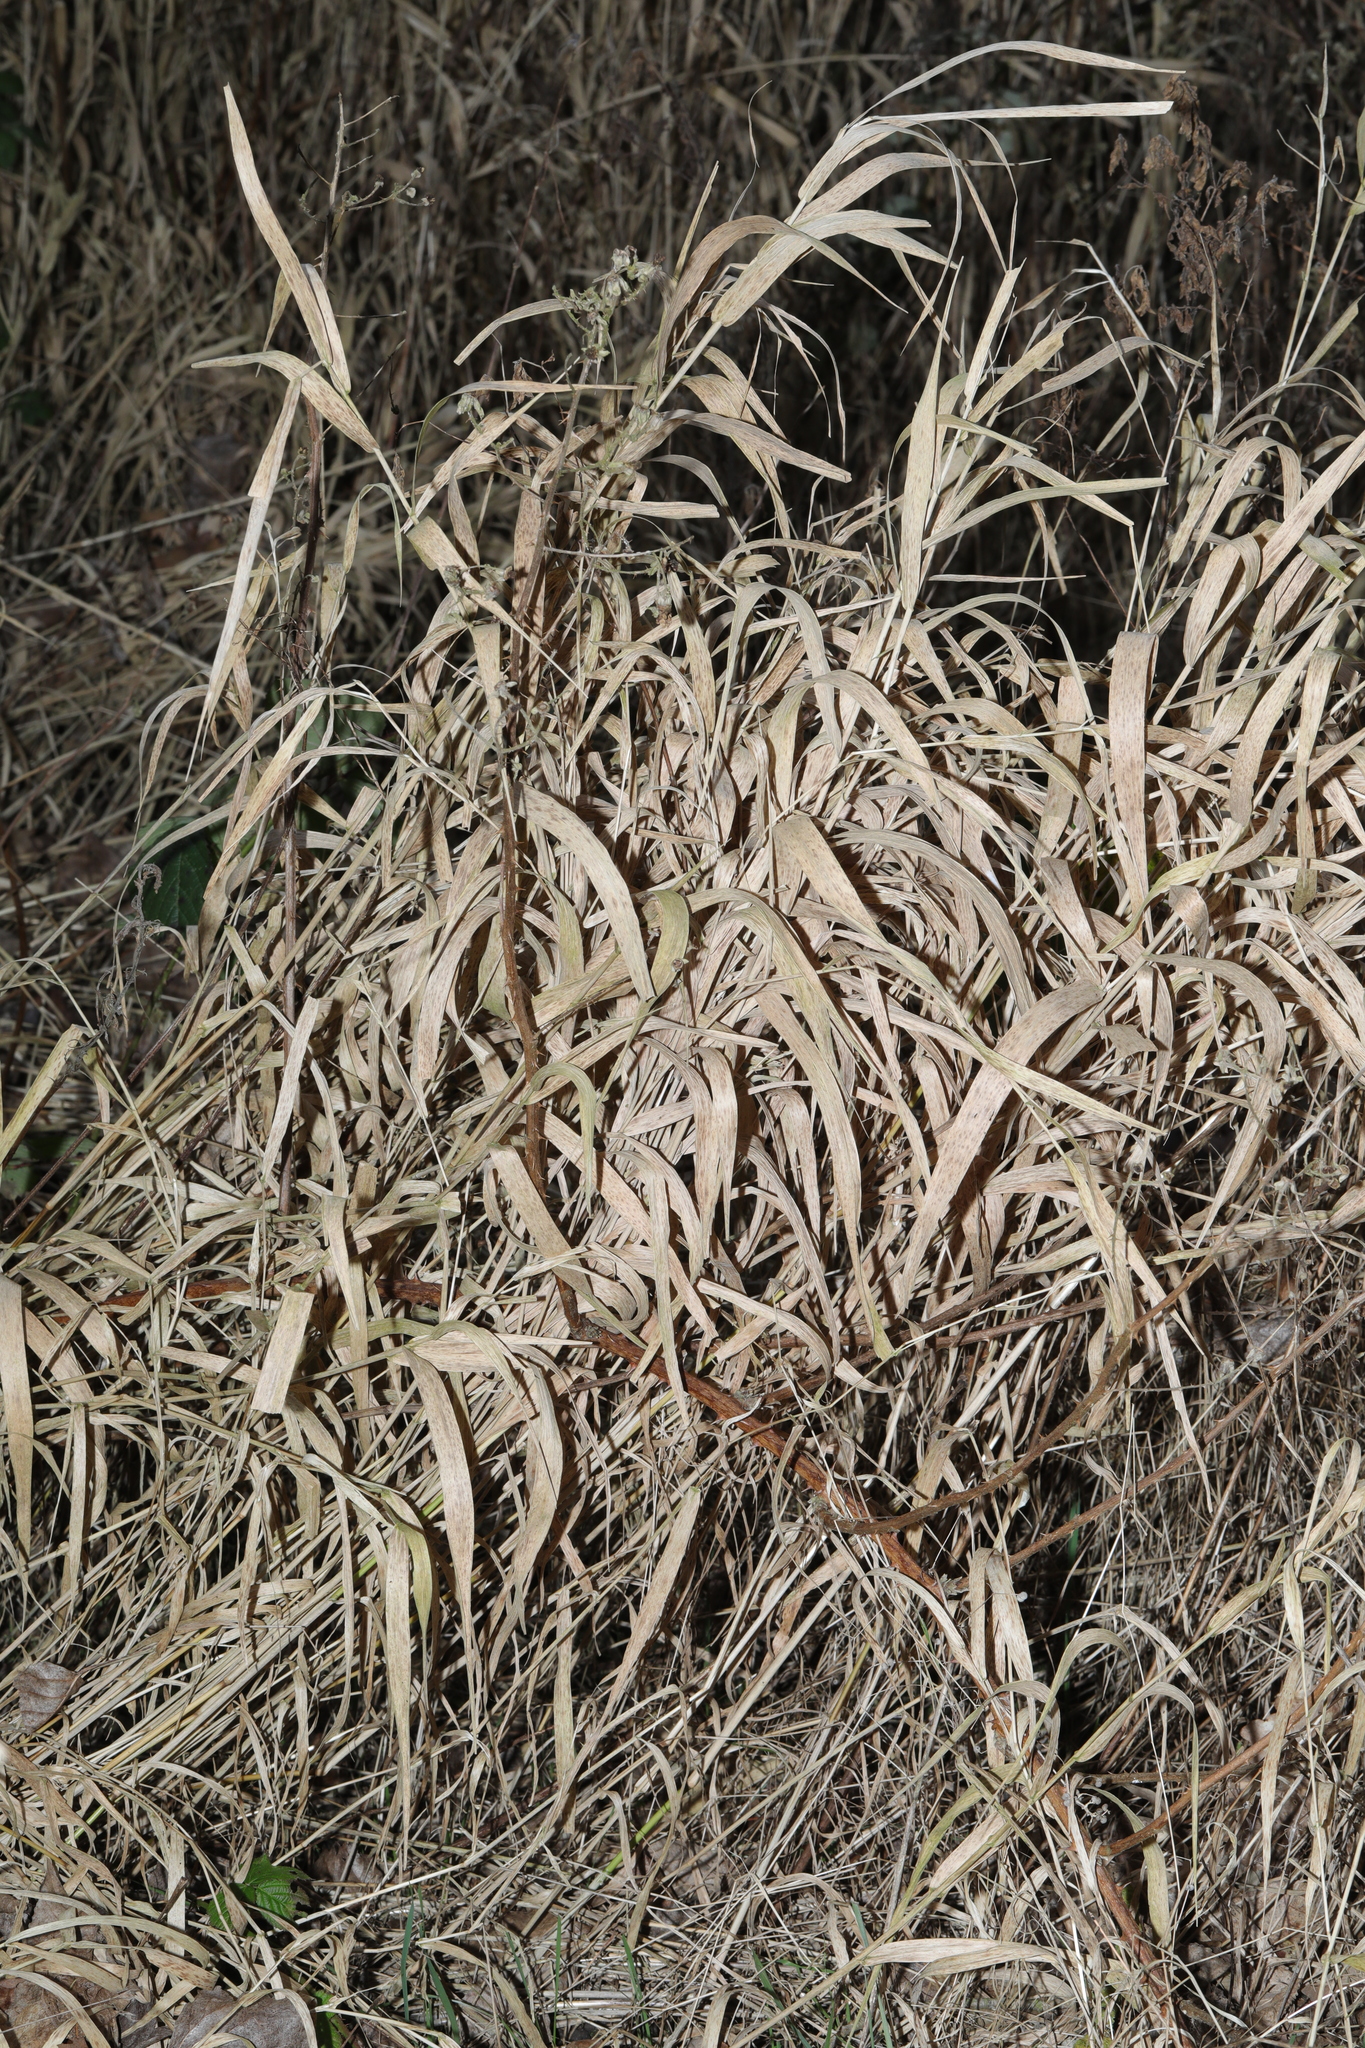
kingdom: Plantae
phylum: Tracheophyta
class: Liliopsida
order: Poales
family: Poaceae
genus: Phalaris
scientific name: Phalaris arundinacea
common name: Reed canary-grass
